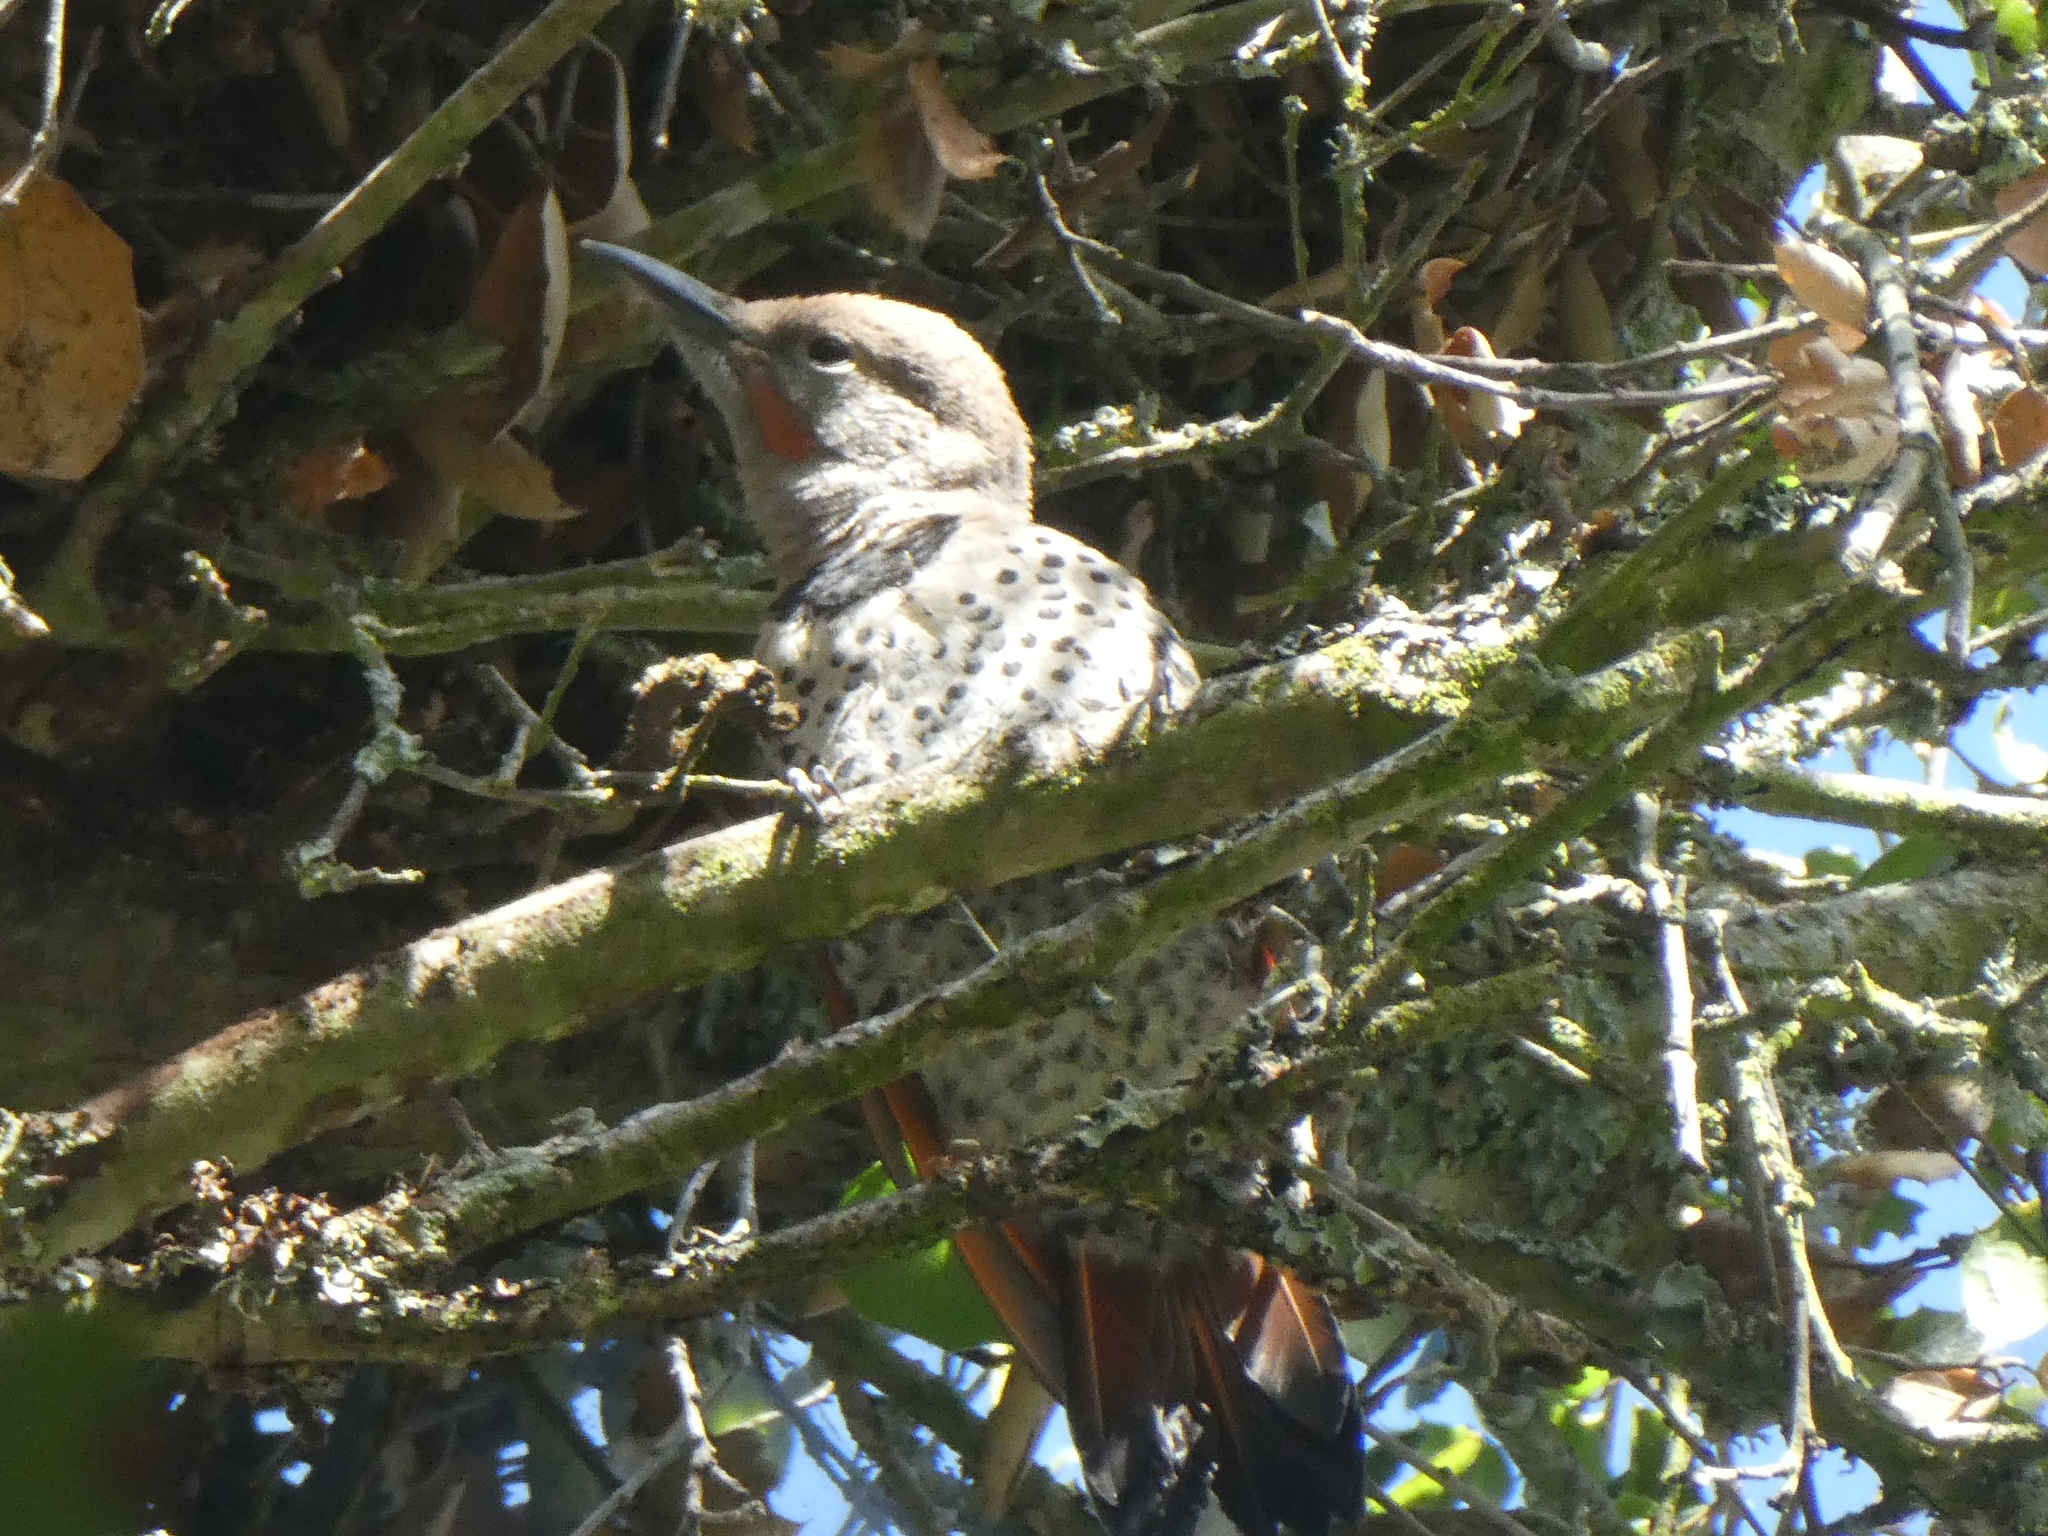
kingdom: Animalia
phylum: Chordata
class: Aves
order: Piciformes
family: Picidae
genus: Colaptes
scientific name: Colaptes auratus
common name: Northern flicker
